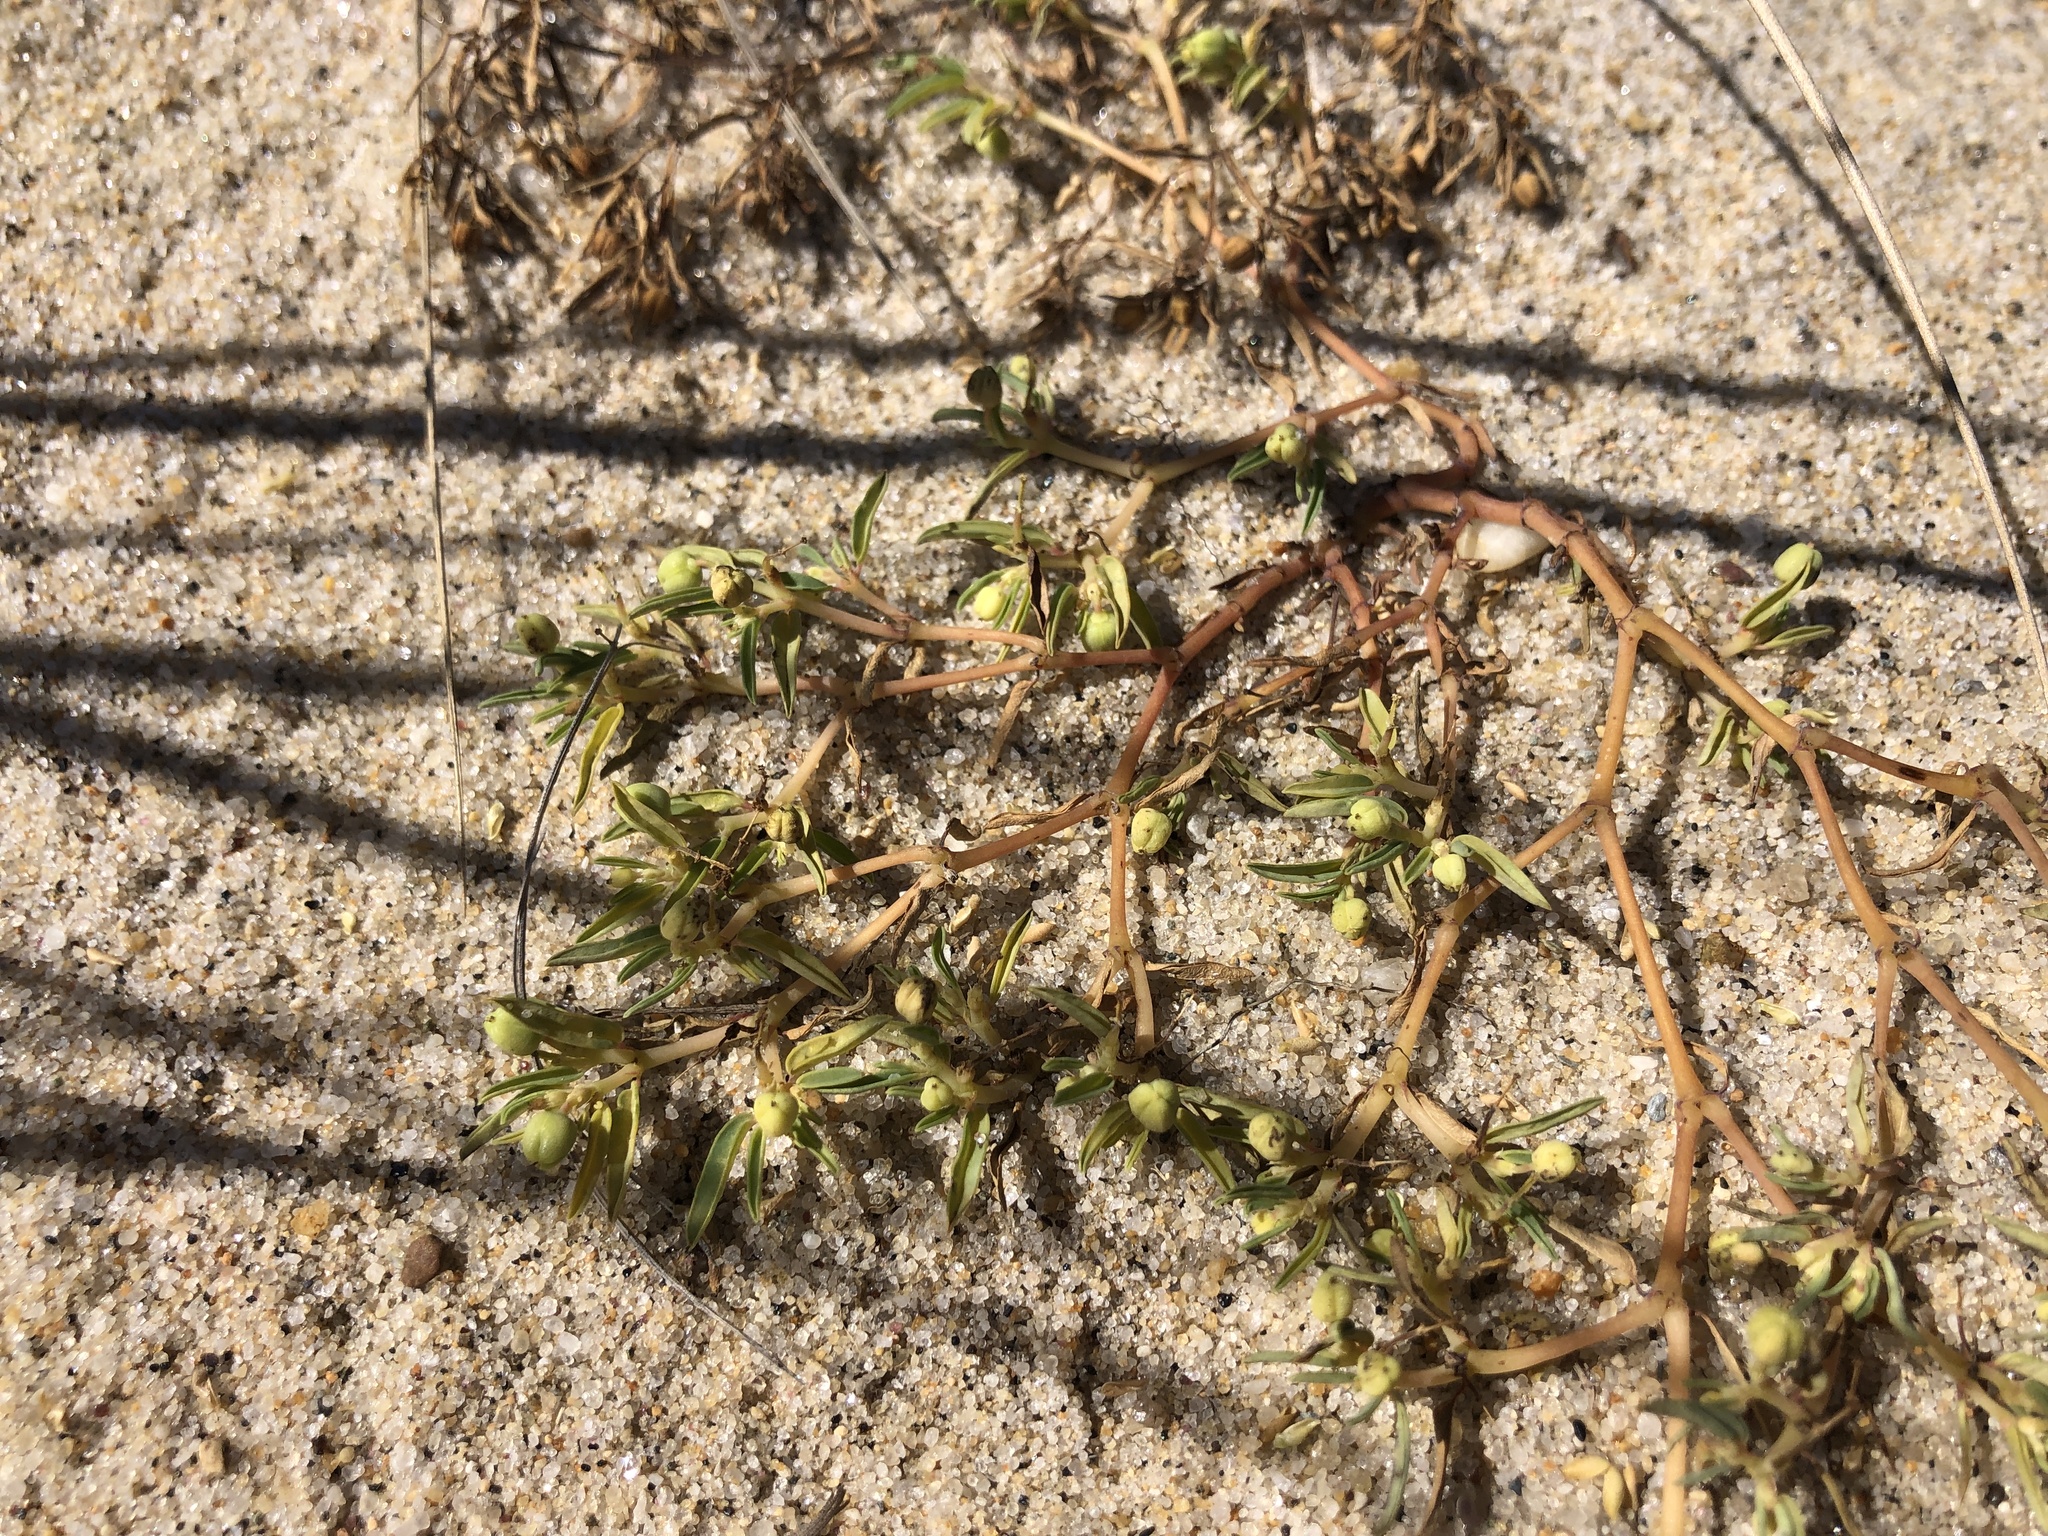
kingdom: Plantae
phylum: Tracheophyta
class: Magnoliopsida
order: Malpighiales
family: Euphorbiaceae
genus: Euphorbia
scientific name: Euphorbia polygonifolia
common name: Knotweed spurge
